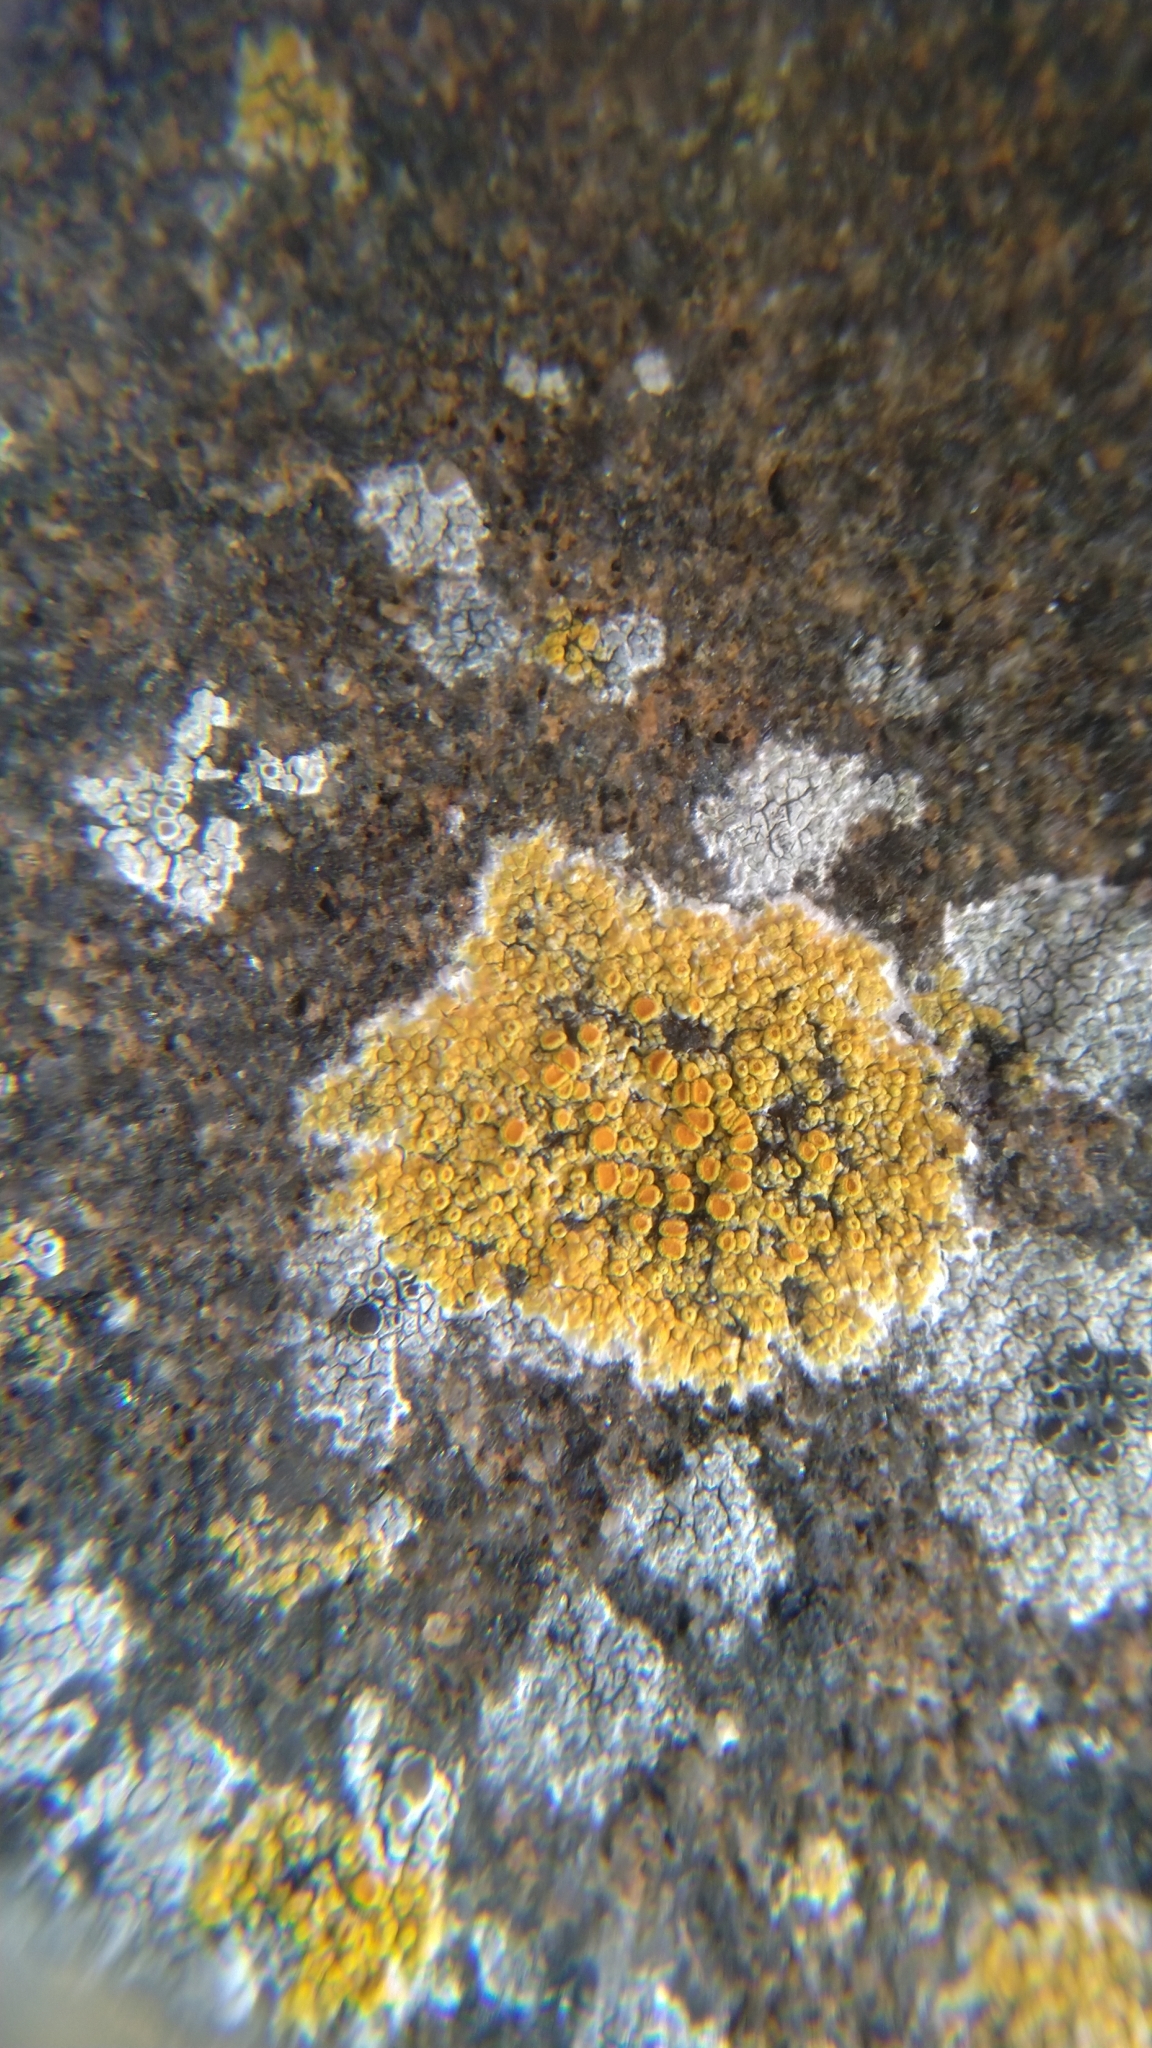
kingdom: Fungi
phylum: Ascomycota
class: Lecanoromycetes
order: Teloschistales
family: Teloschistaceae
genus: Flavoplaca
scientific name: Flavoplaca marina
